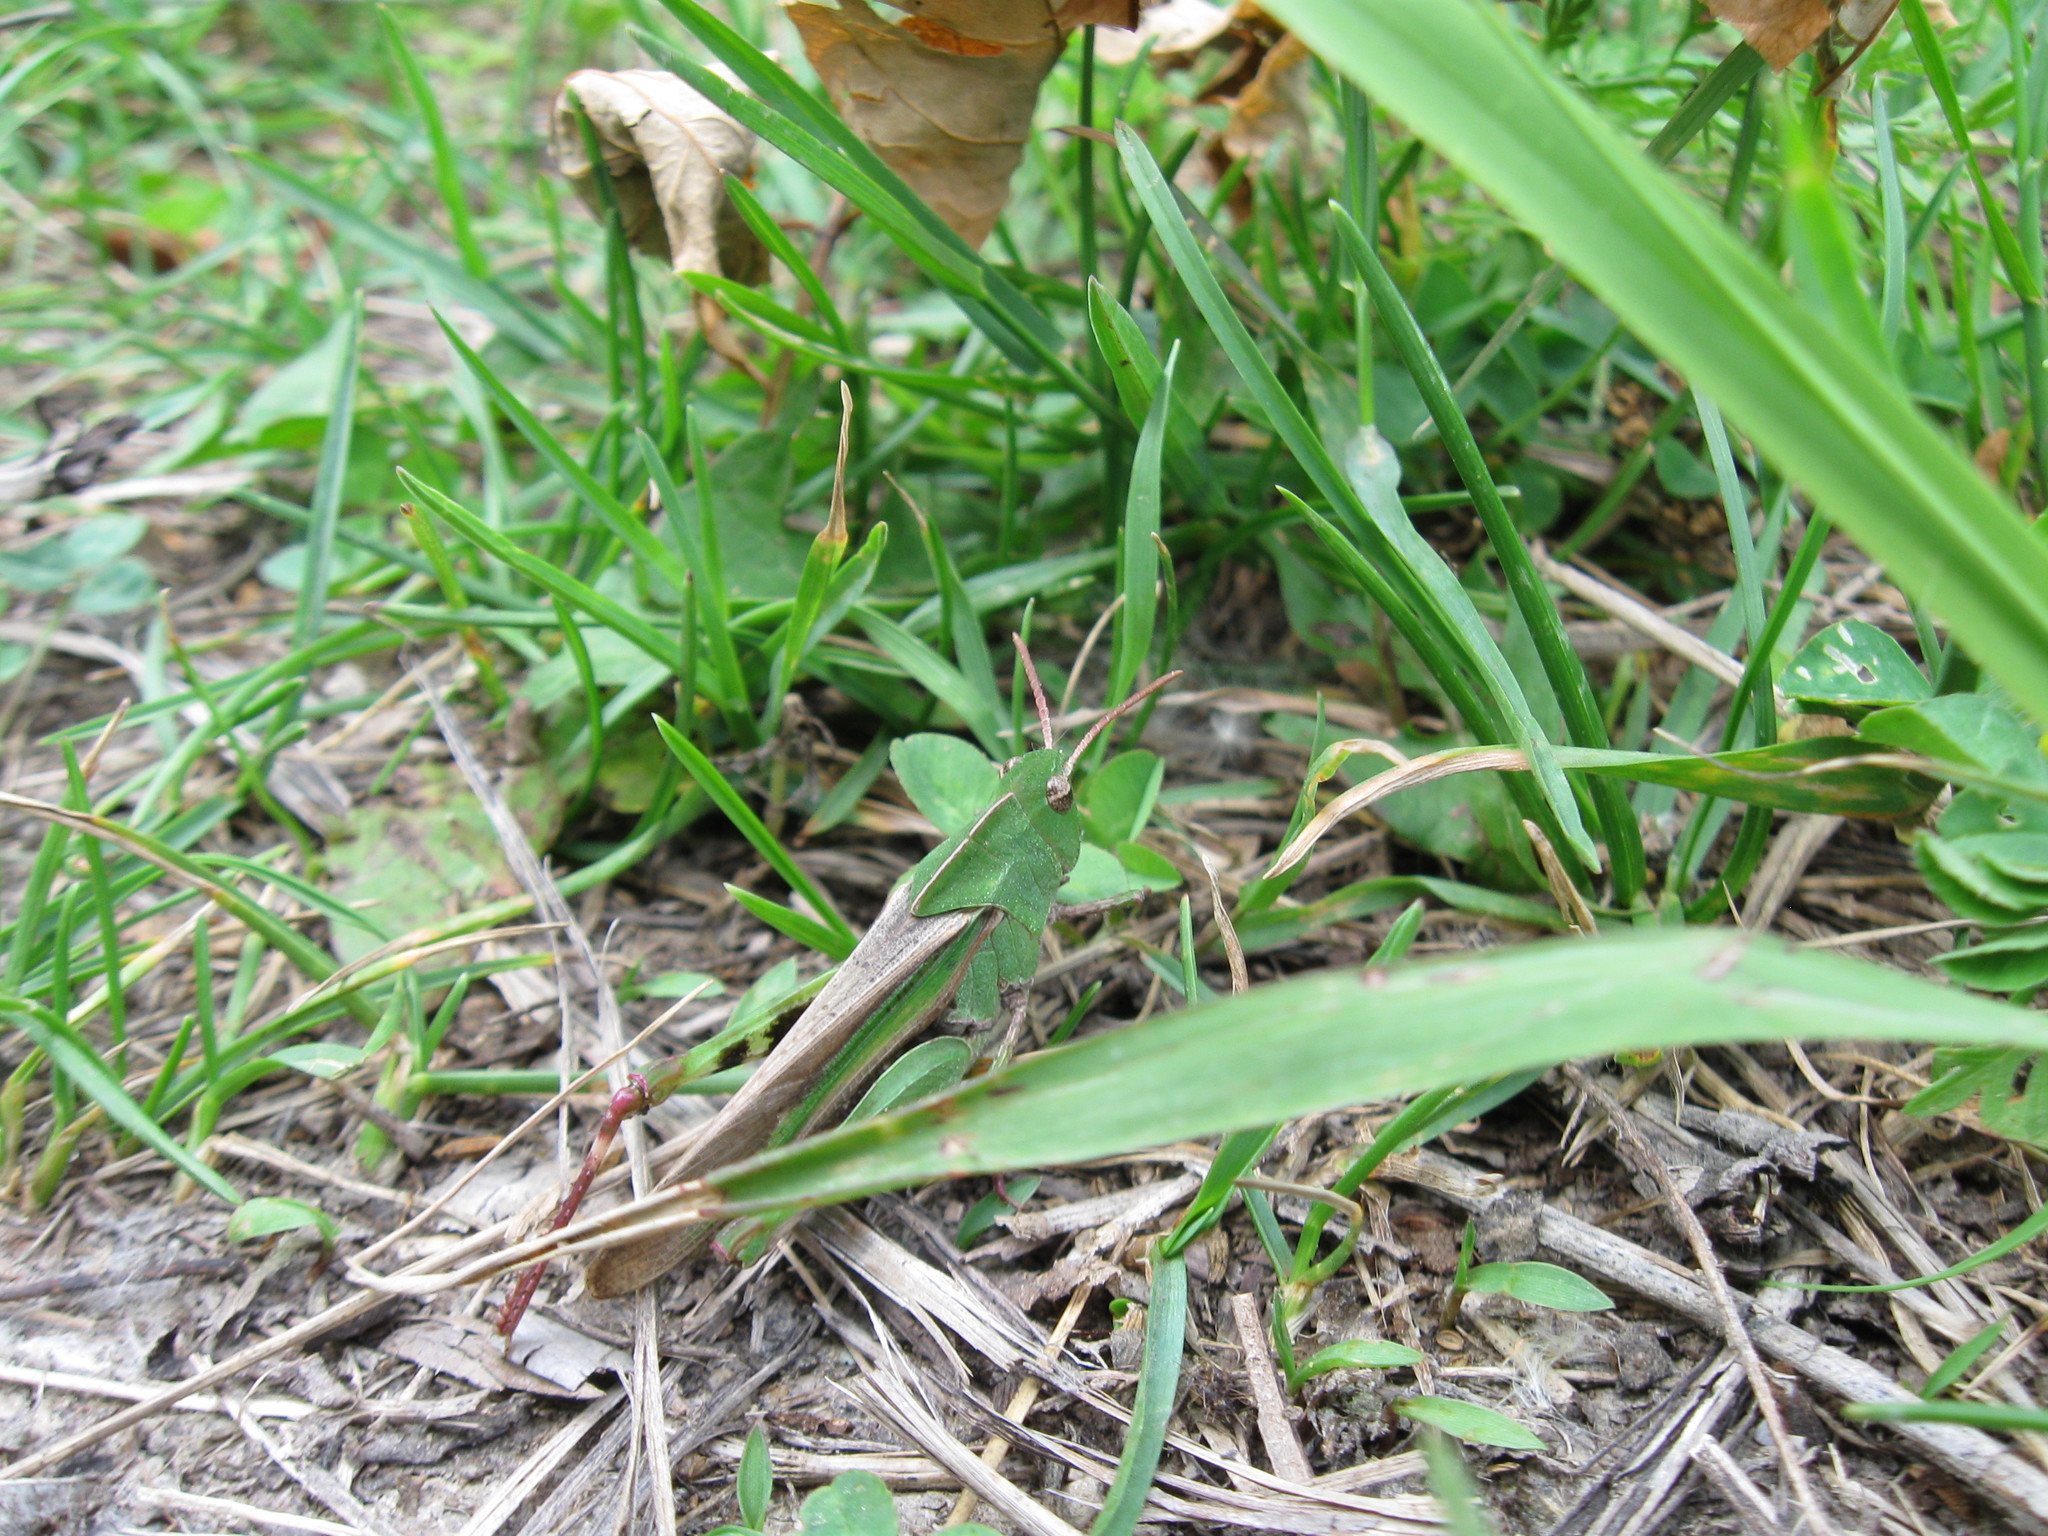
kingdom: Animalia
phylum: Arthropoda
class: Insecta
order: Orthoptera
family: Acrididae
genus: Chortophaga
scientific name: Chortophaga viridifasciata
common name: Green-striped grasshopper
